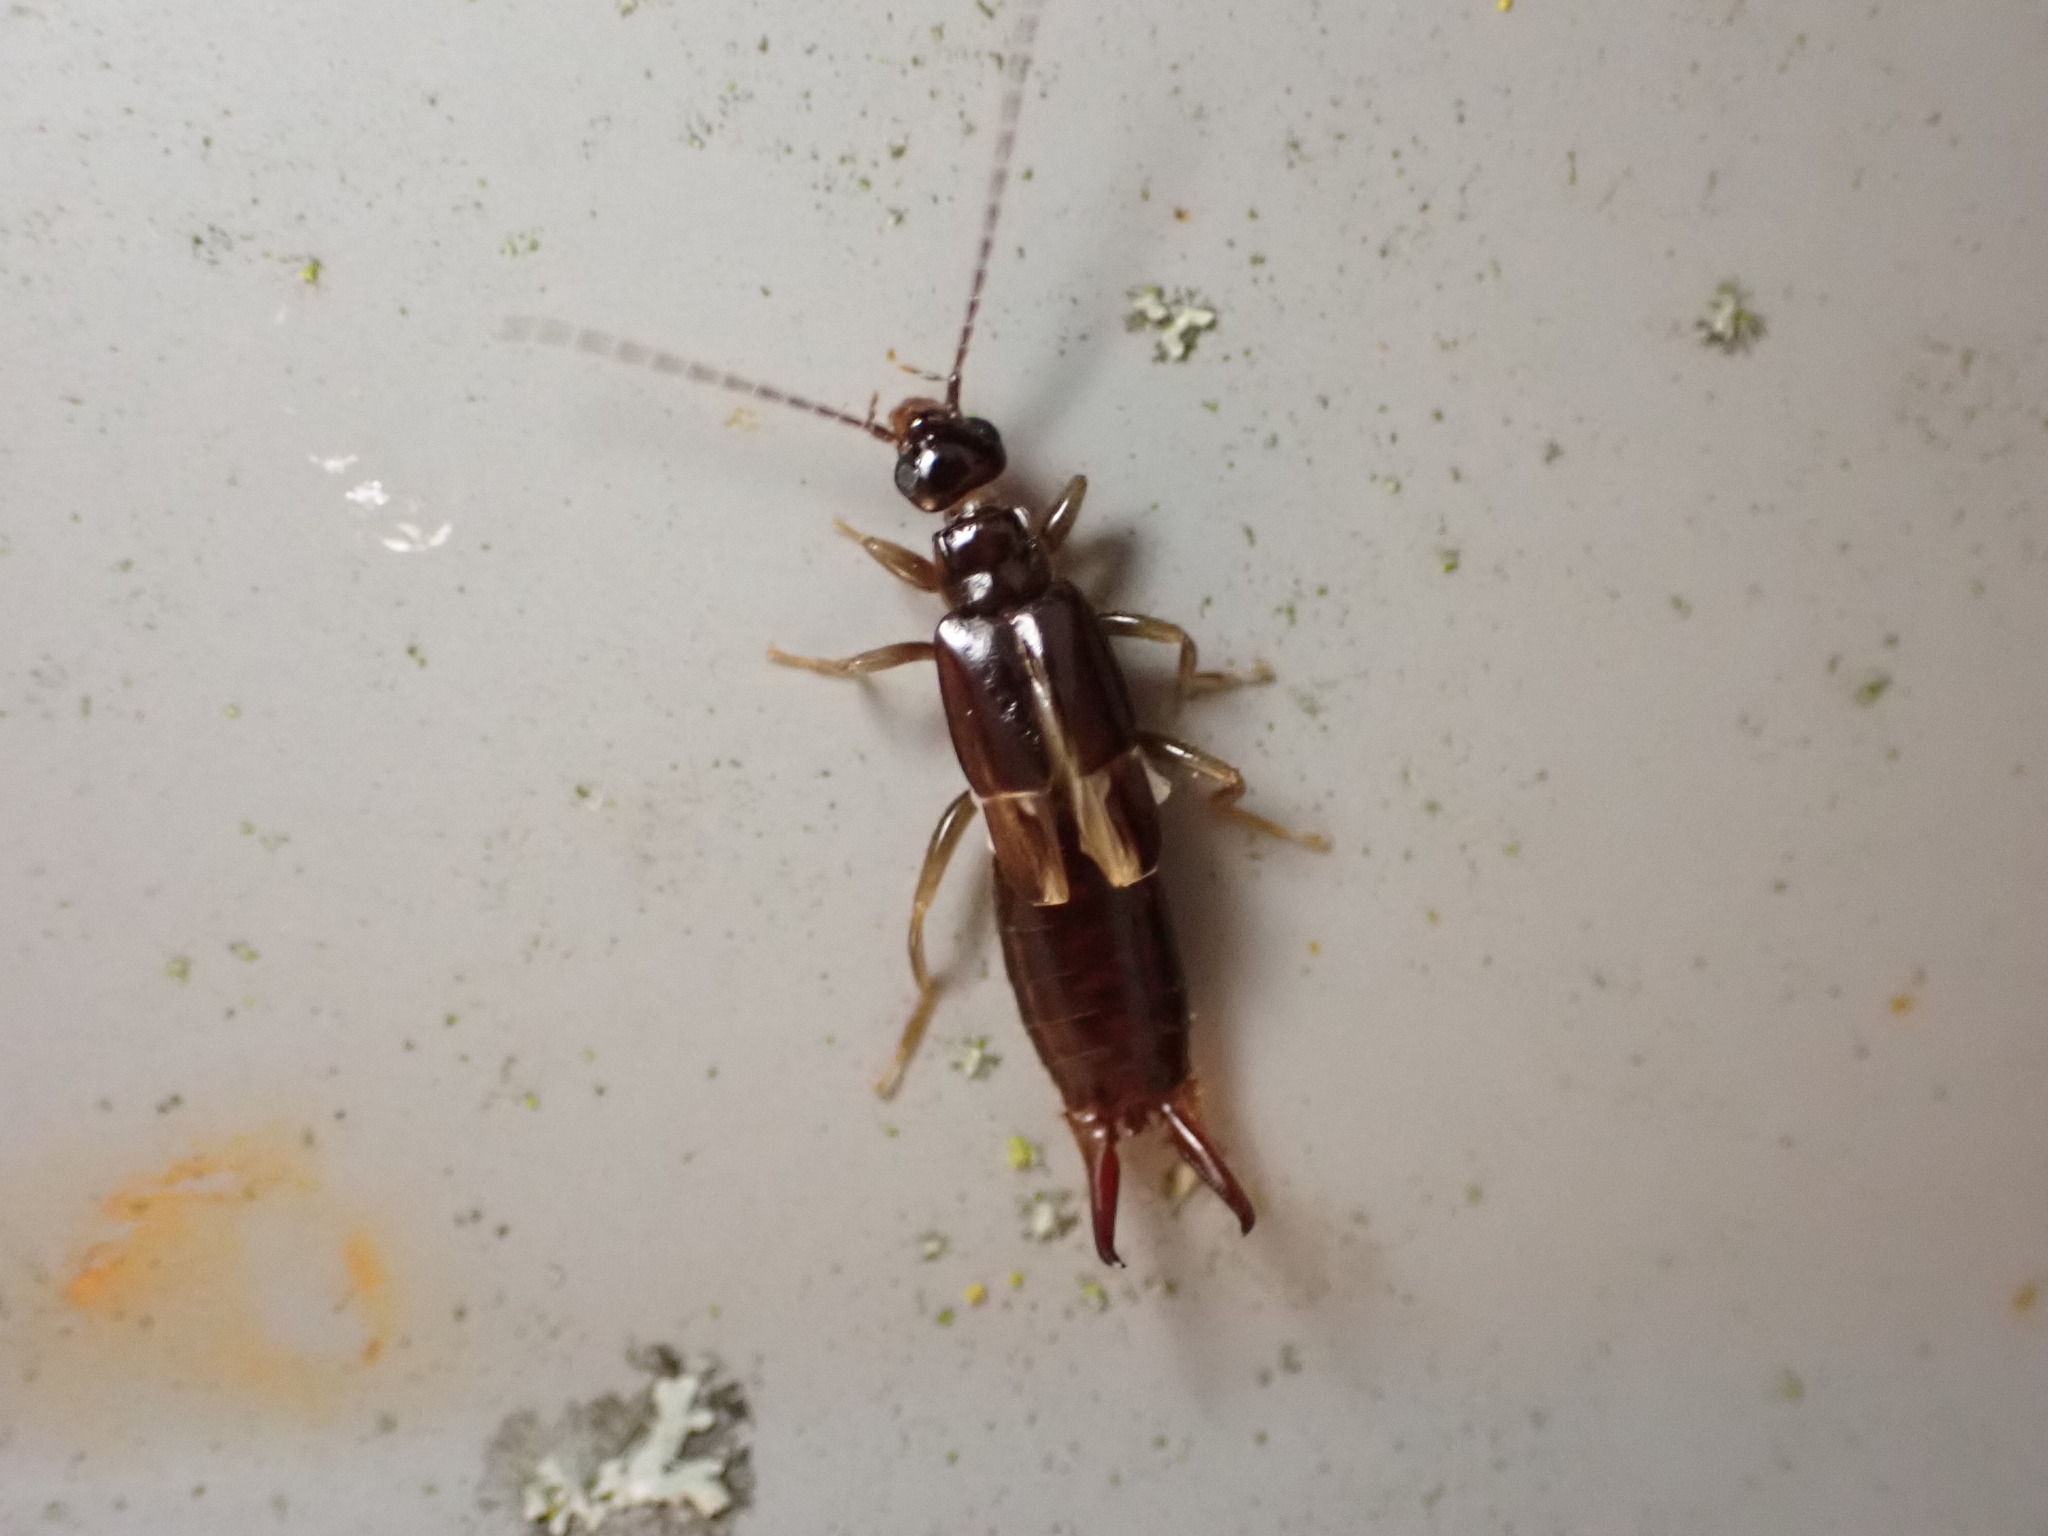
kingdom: Animalia
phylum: Arthropoda
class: Insecta
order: Dermaptera
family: Spongiphoridae
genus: Nesogaster
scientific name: Nesogaster halli
